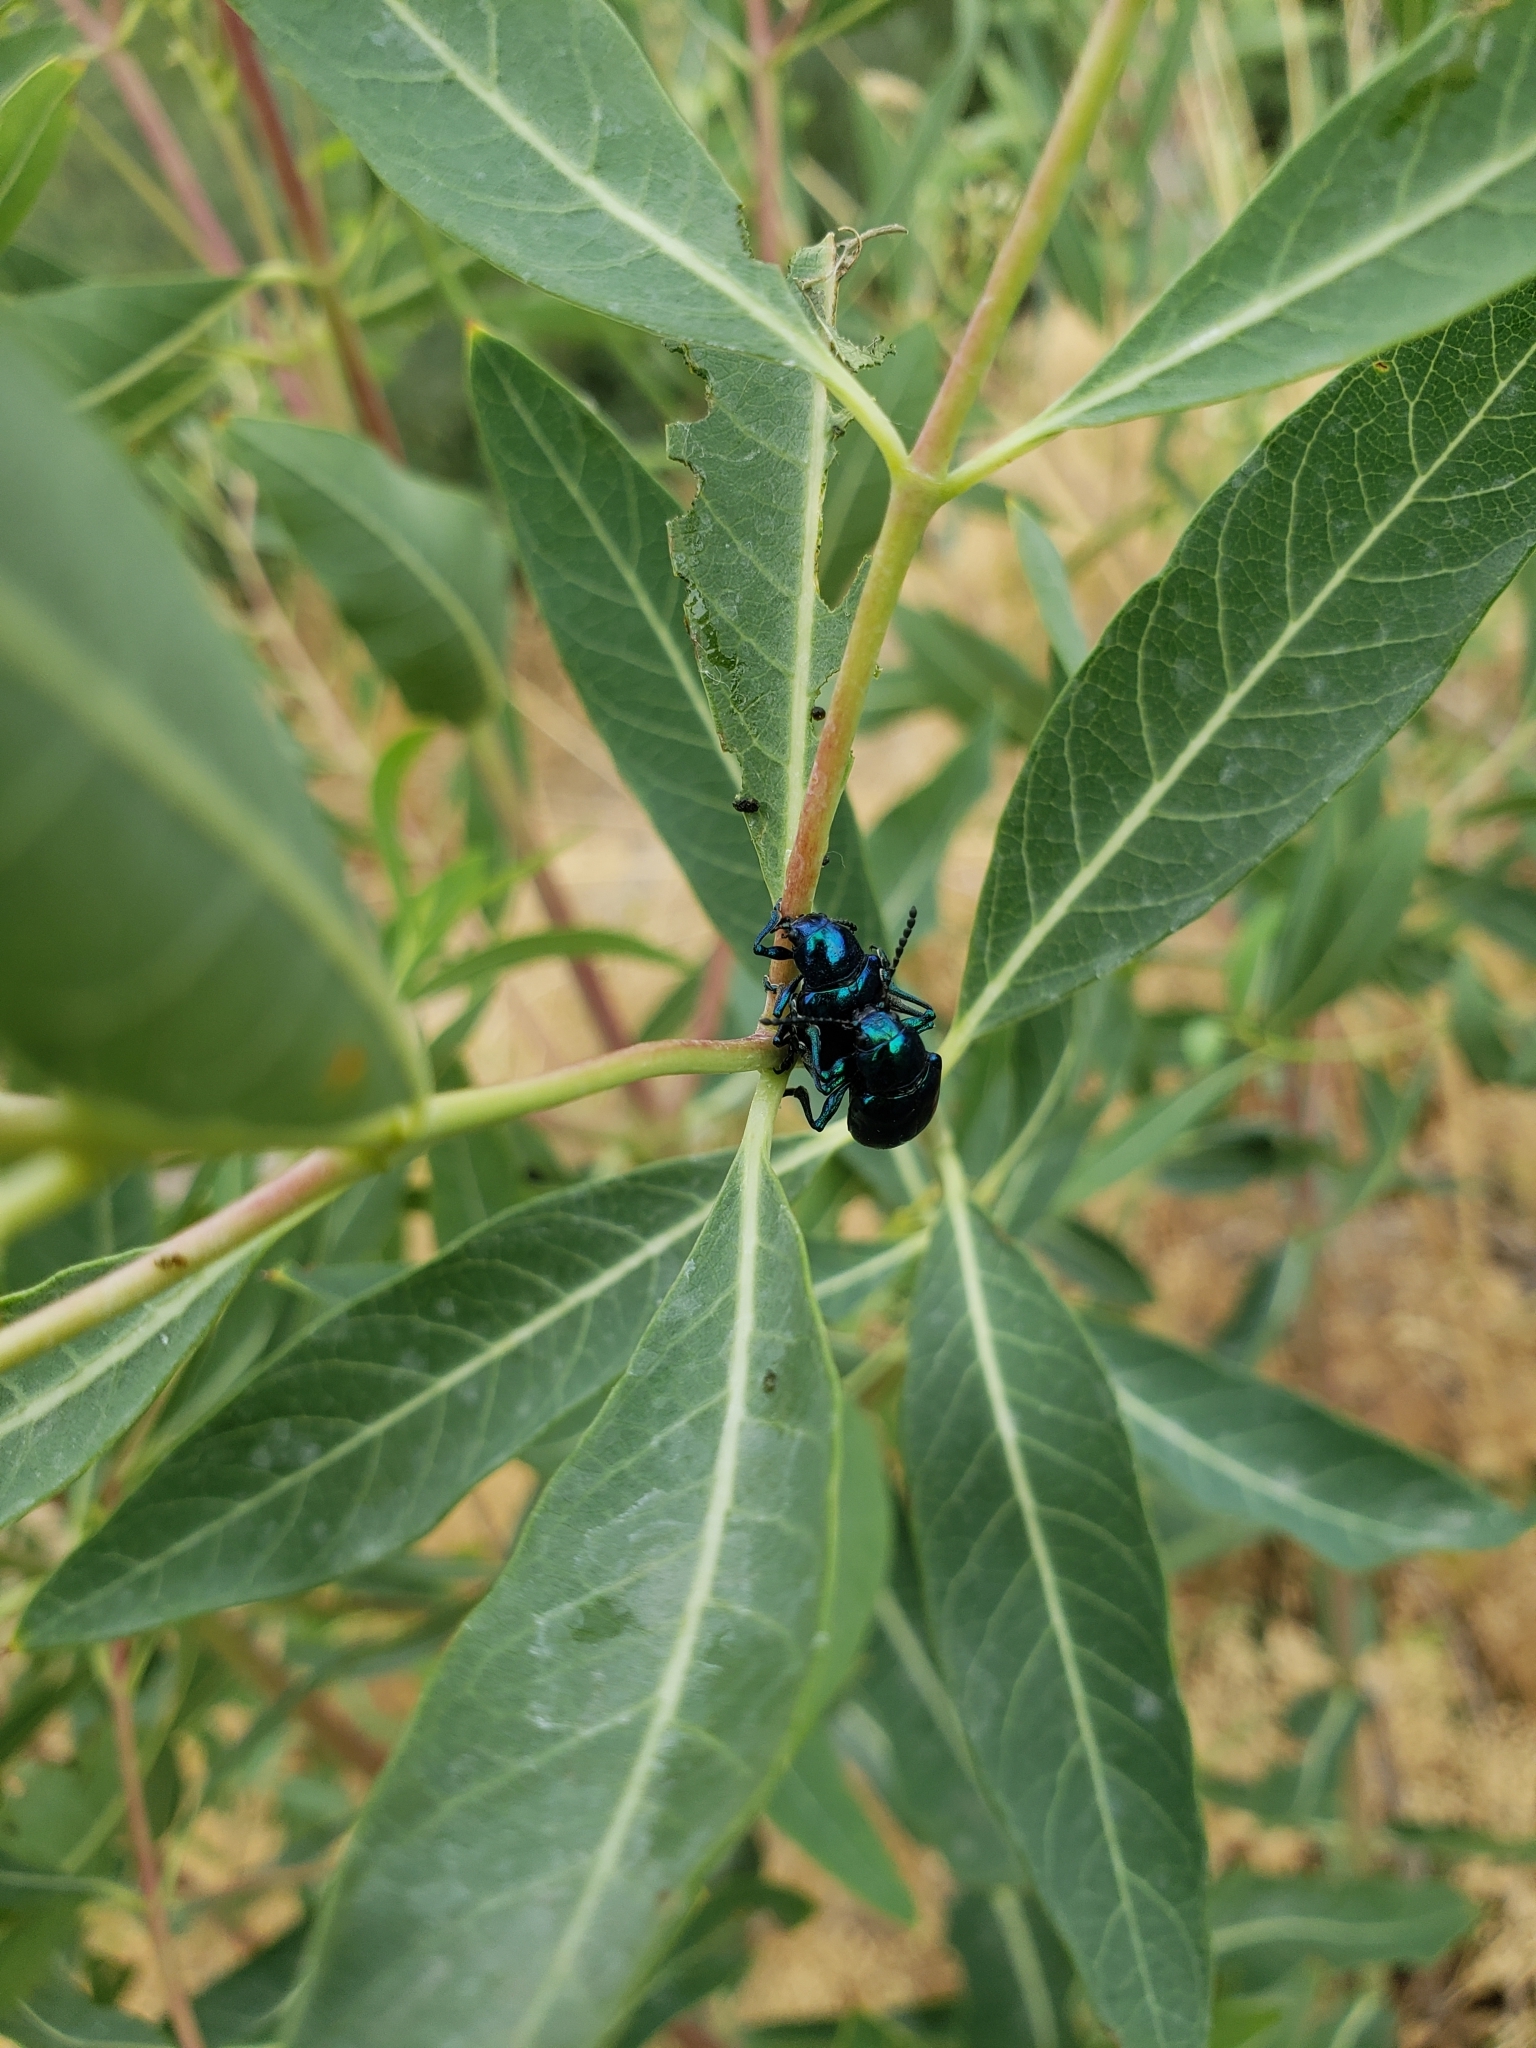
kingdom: Animalia
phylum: Arthropoda
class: Insecta
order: Coleoptera
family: Chrysomelidae
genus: Chrysochus
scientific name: Chrysochus cobaltinus
